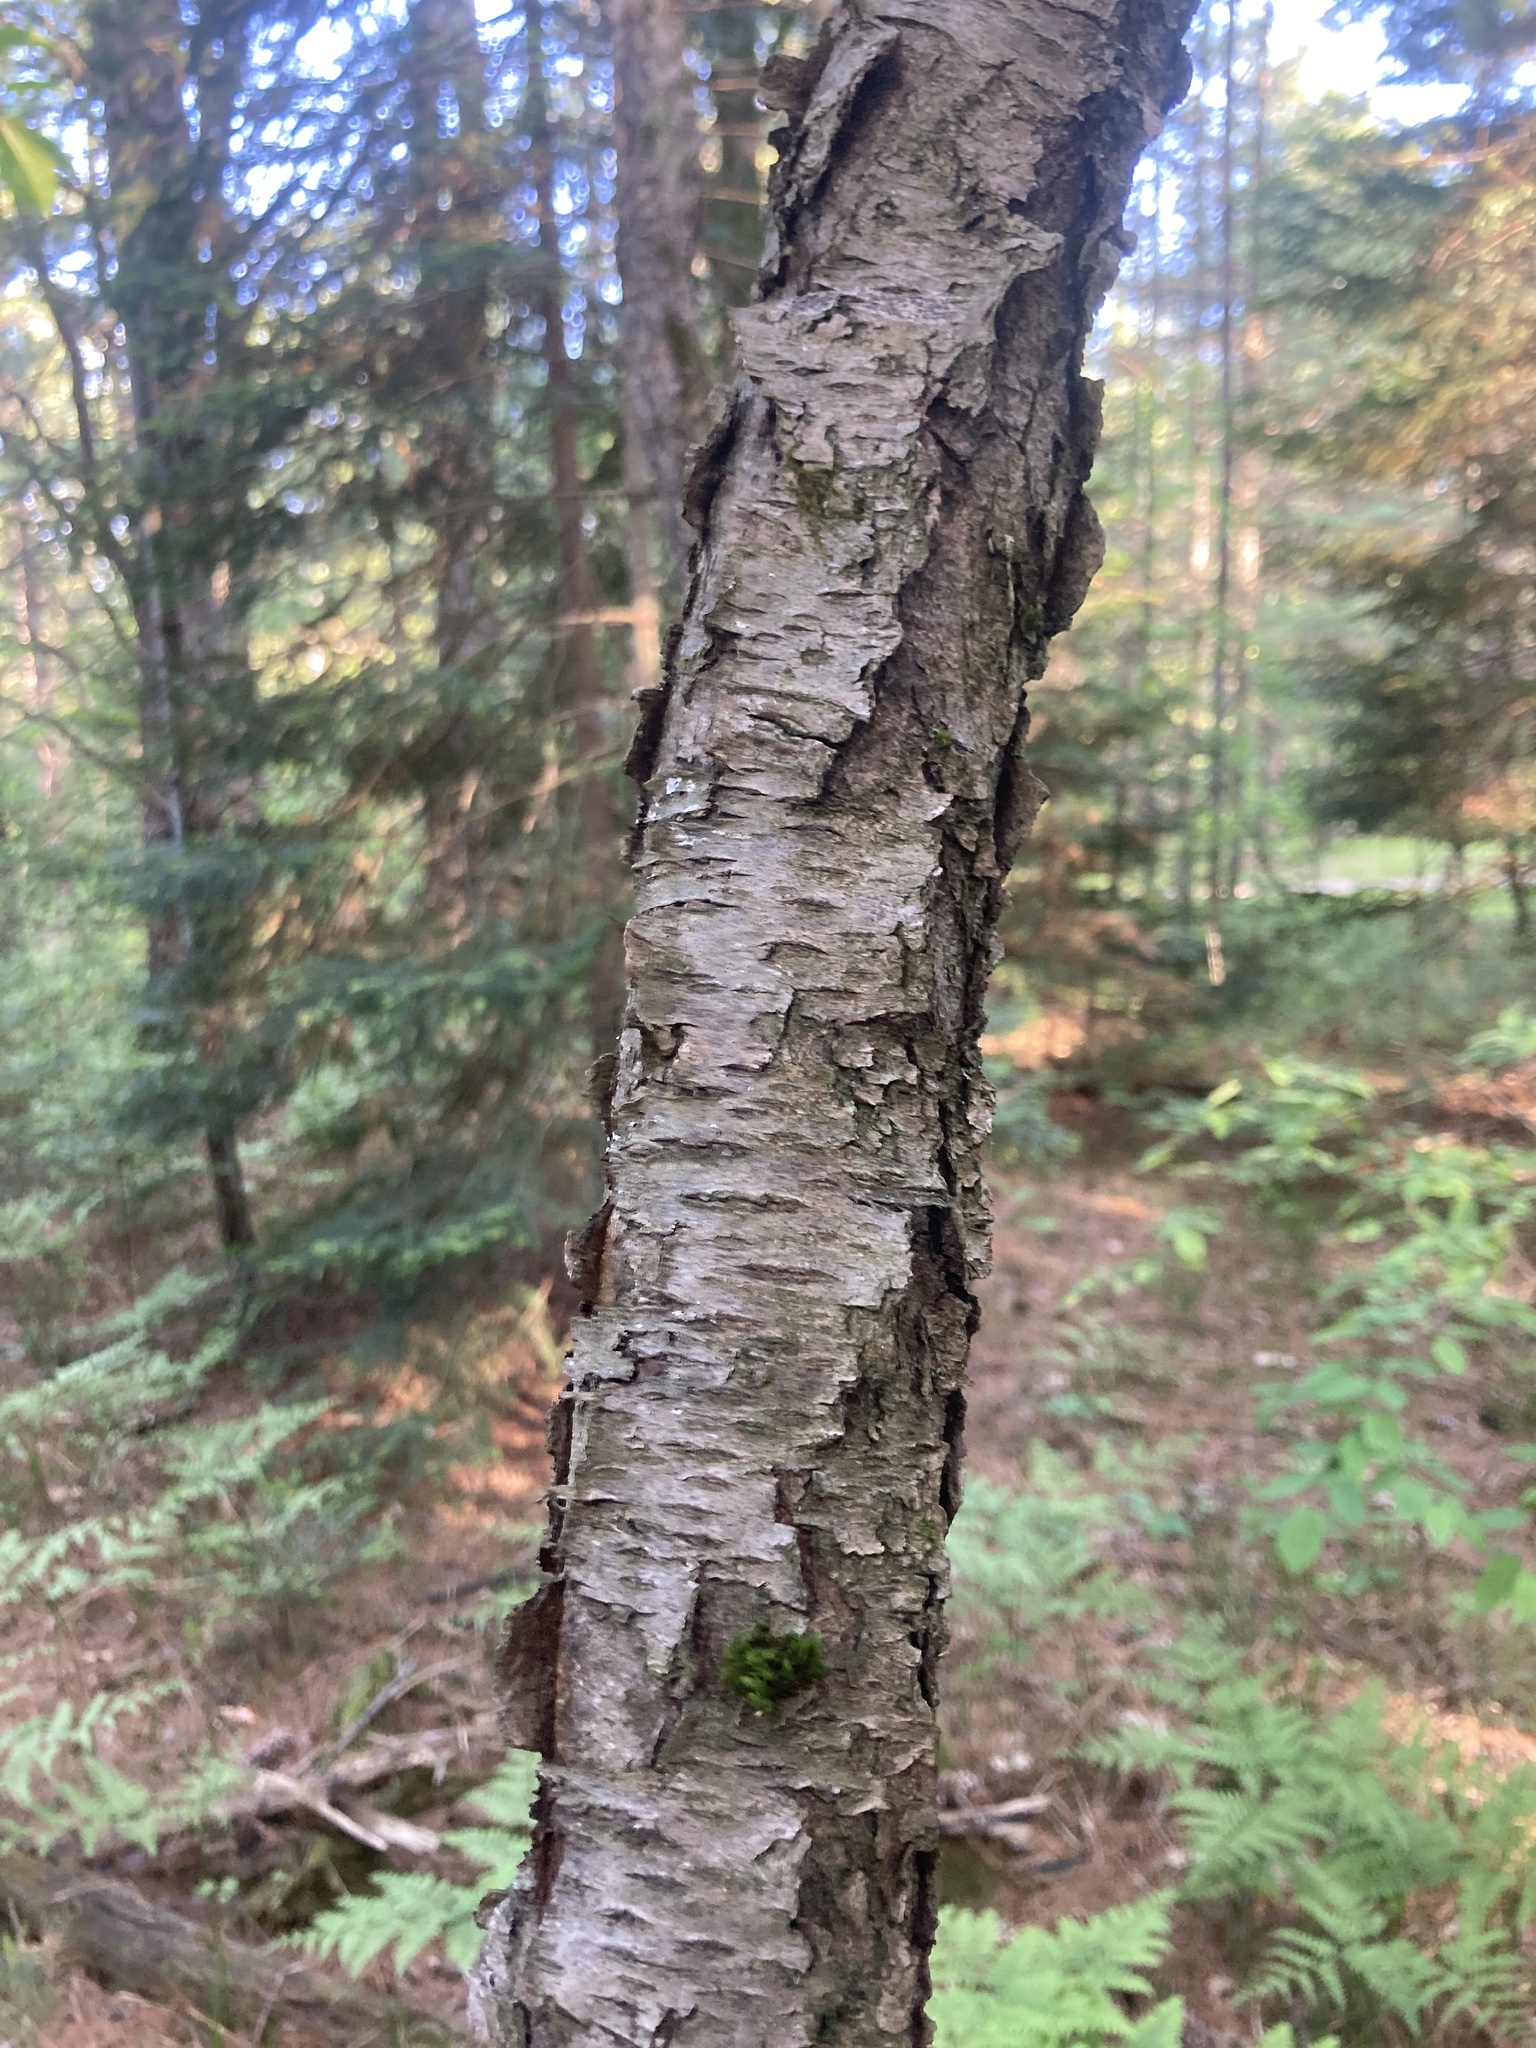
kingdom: Plantae
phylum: Tracheophyta
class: Magnoliopsida
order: Rosales
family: Rosaceae
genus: Prunus
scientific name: Prunus serotina
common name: Black cherry
